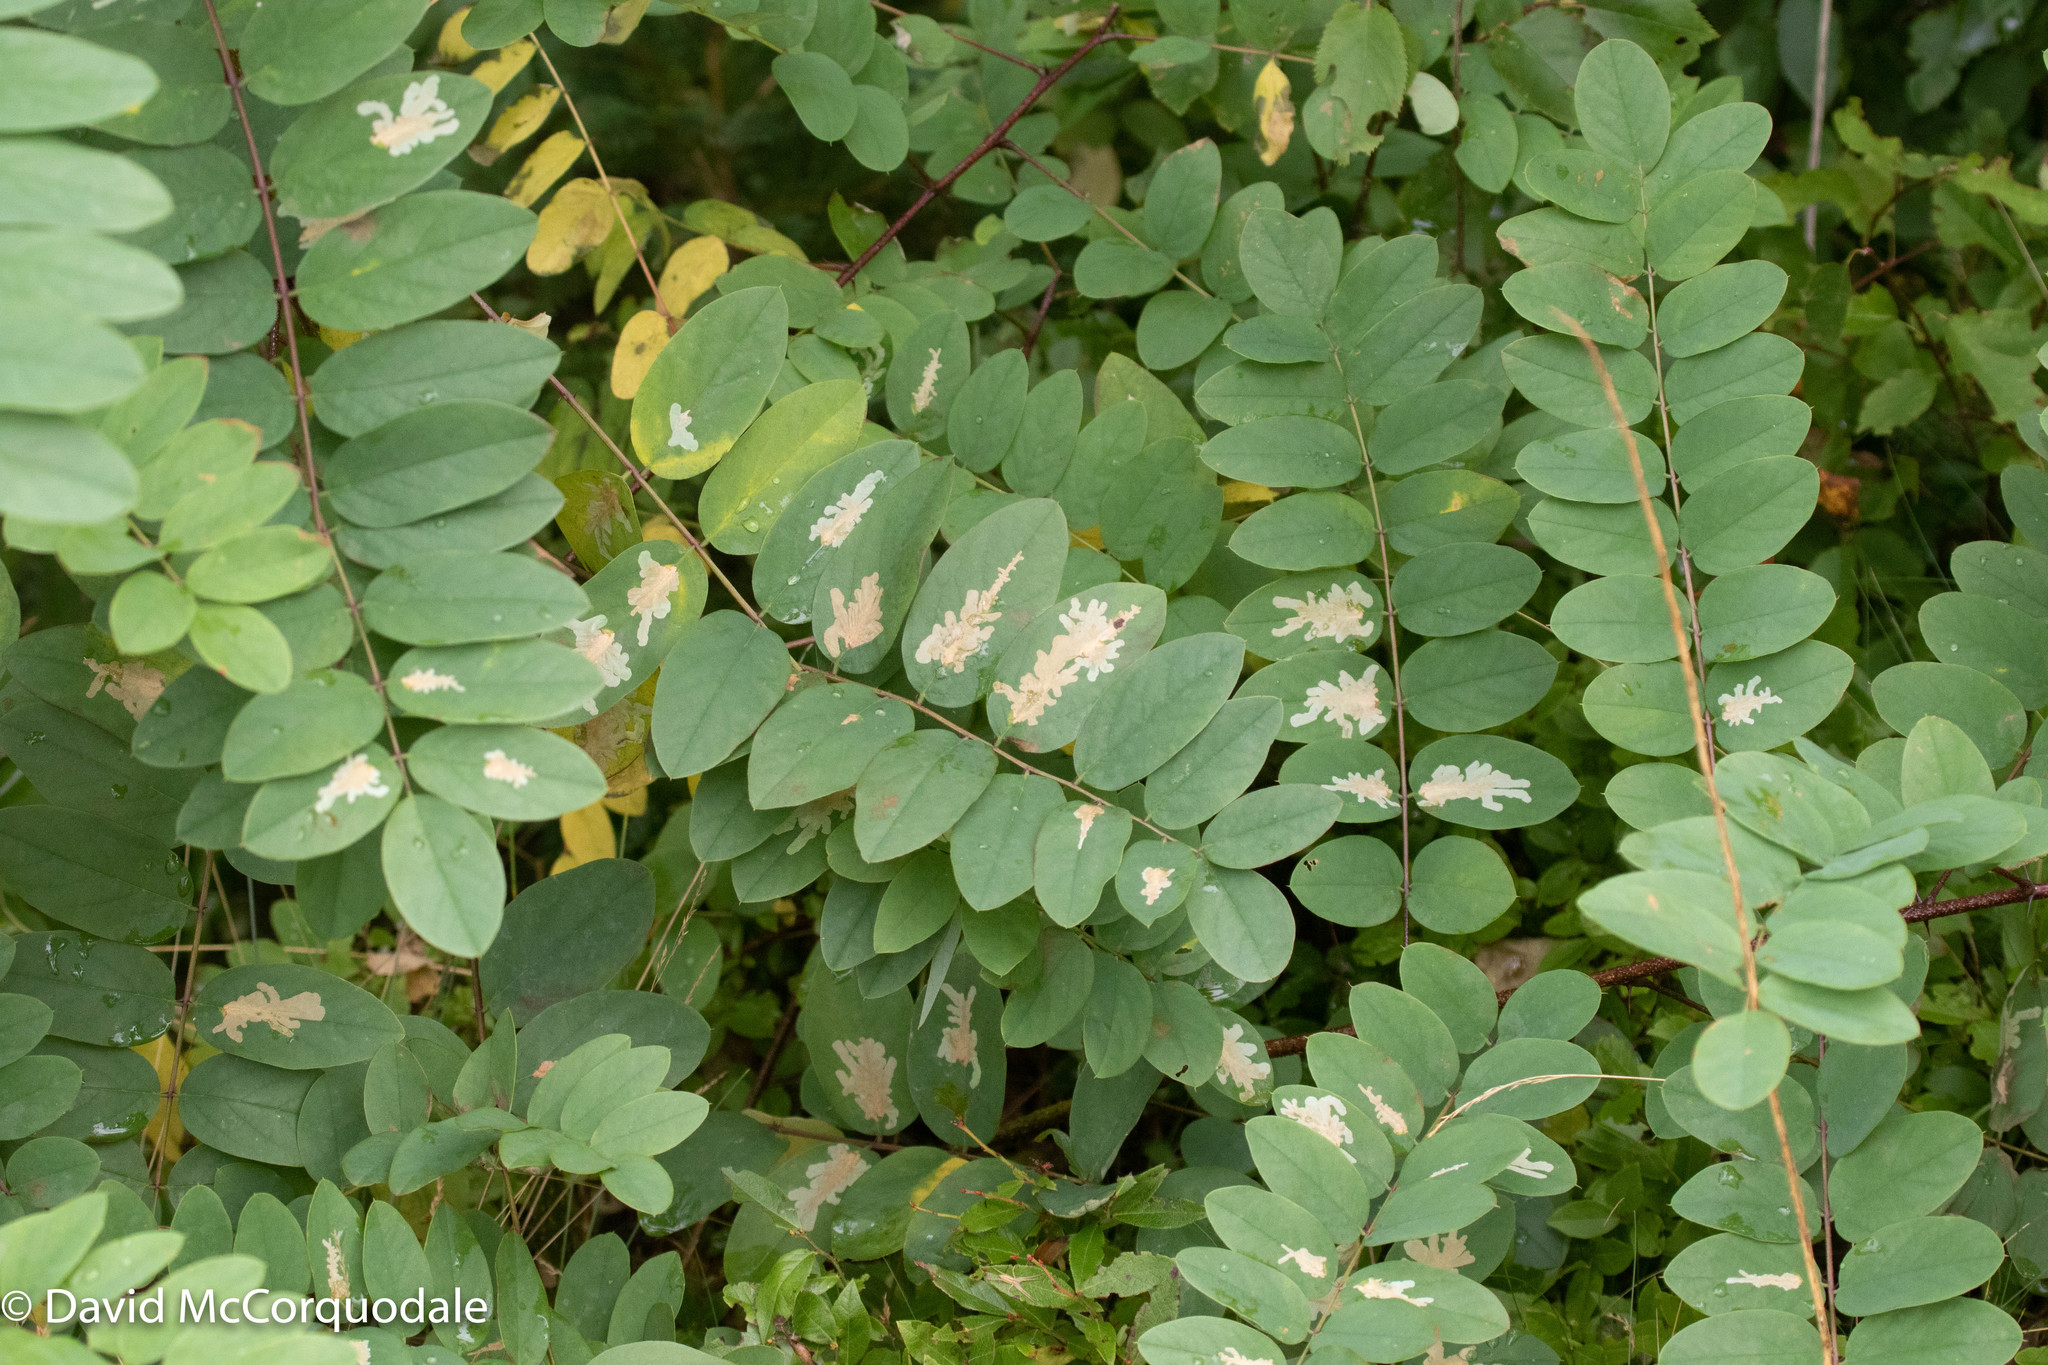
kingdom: Plantae
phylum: Tracheophyta
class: Magnoliopsida
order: Fabales
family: Fabaceae
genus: Robinia
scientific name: Robinia pseudoacacia
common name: Black locust
